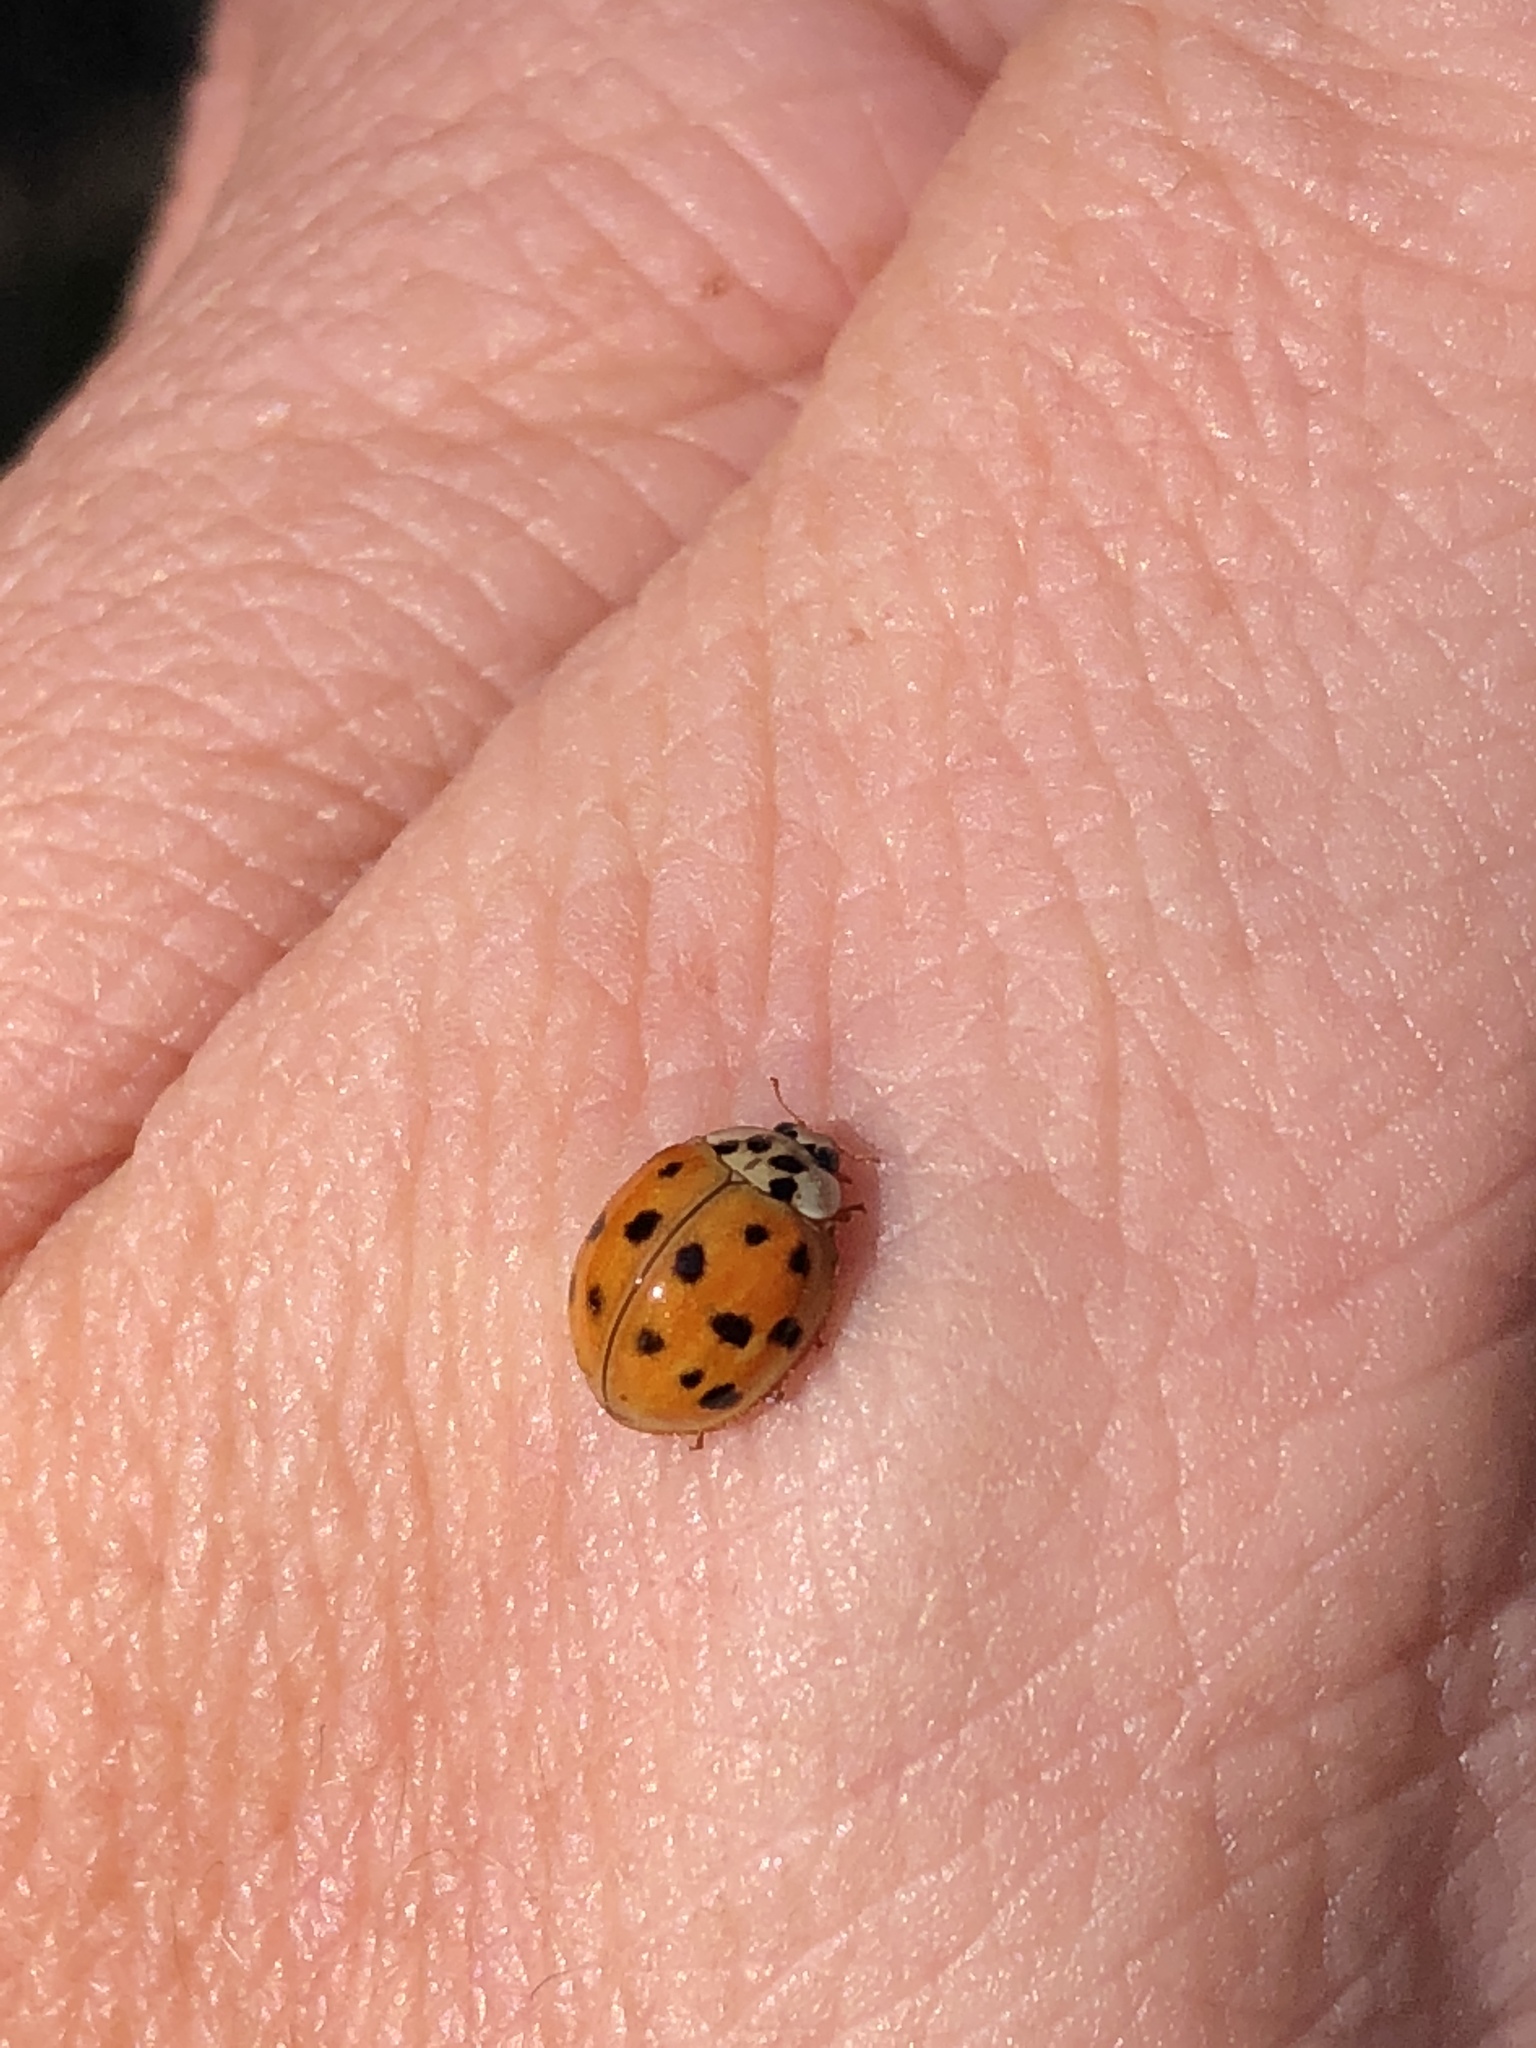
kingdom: Animalia
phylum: Arthropoda
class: Insecta
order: Coleoptera
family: Coccinellidae
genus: Harmonia
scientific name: Harmonia axyridis
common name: Harlequin ladybird
